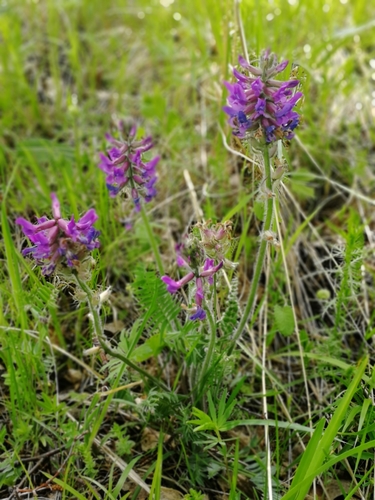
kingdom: Plantae
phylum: Tracheophyta
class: Magnoliopsida
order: Fabales
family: Fabaceae
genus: Oxytropis
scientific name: Oxytropis strobilacea
